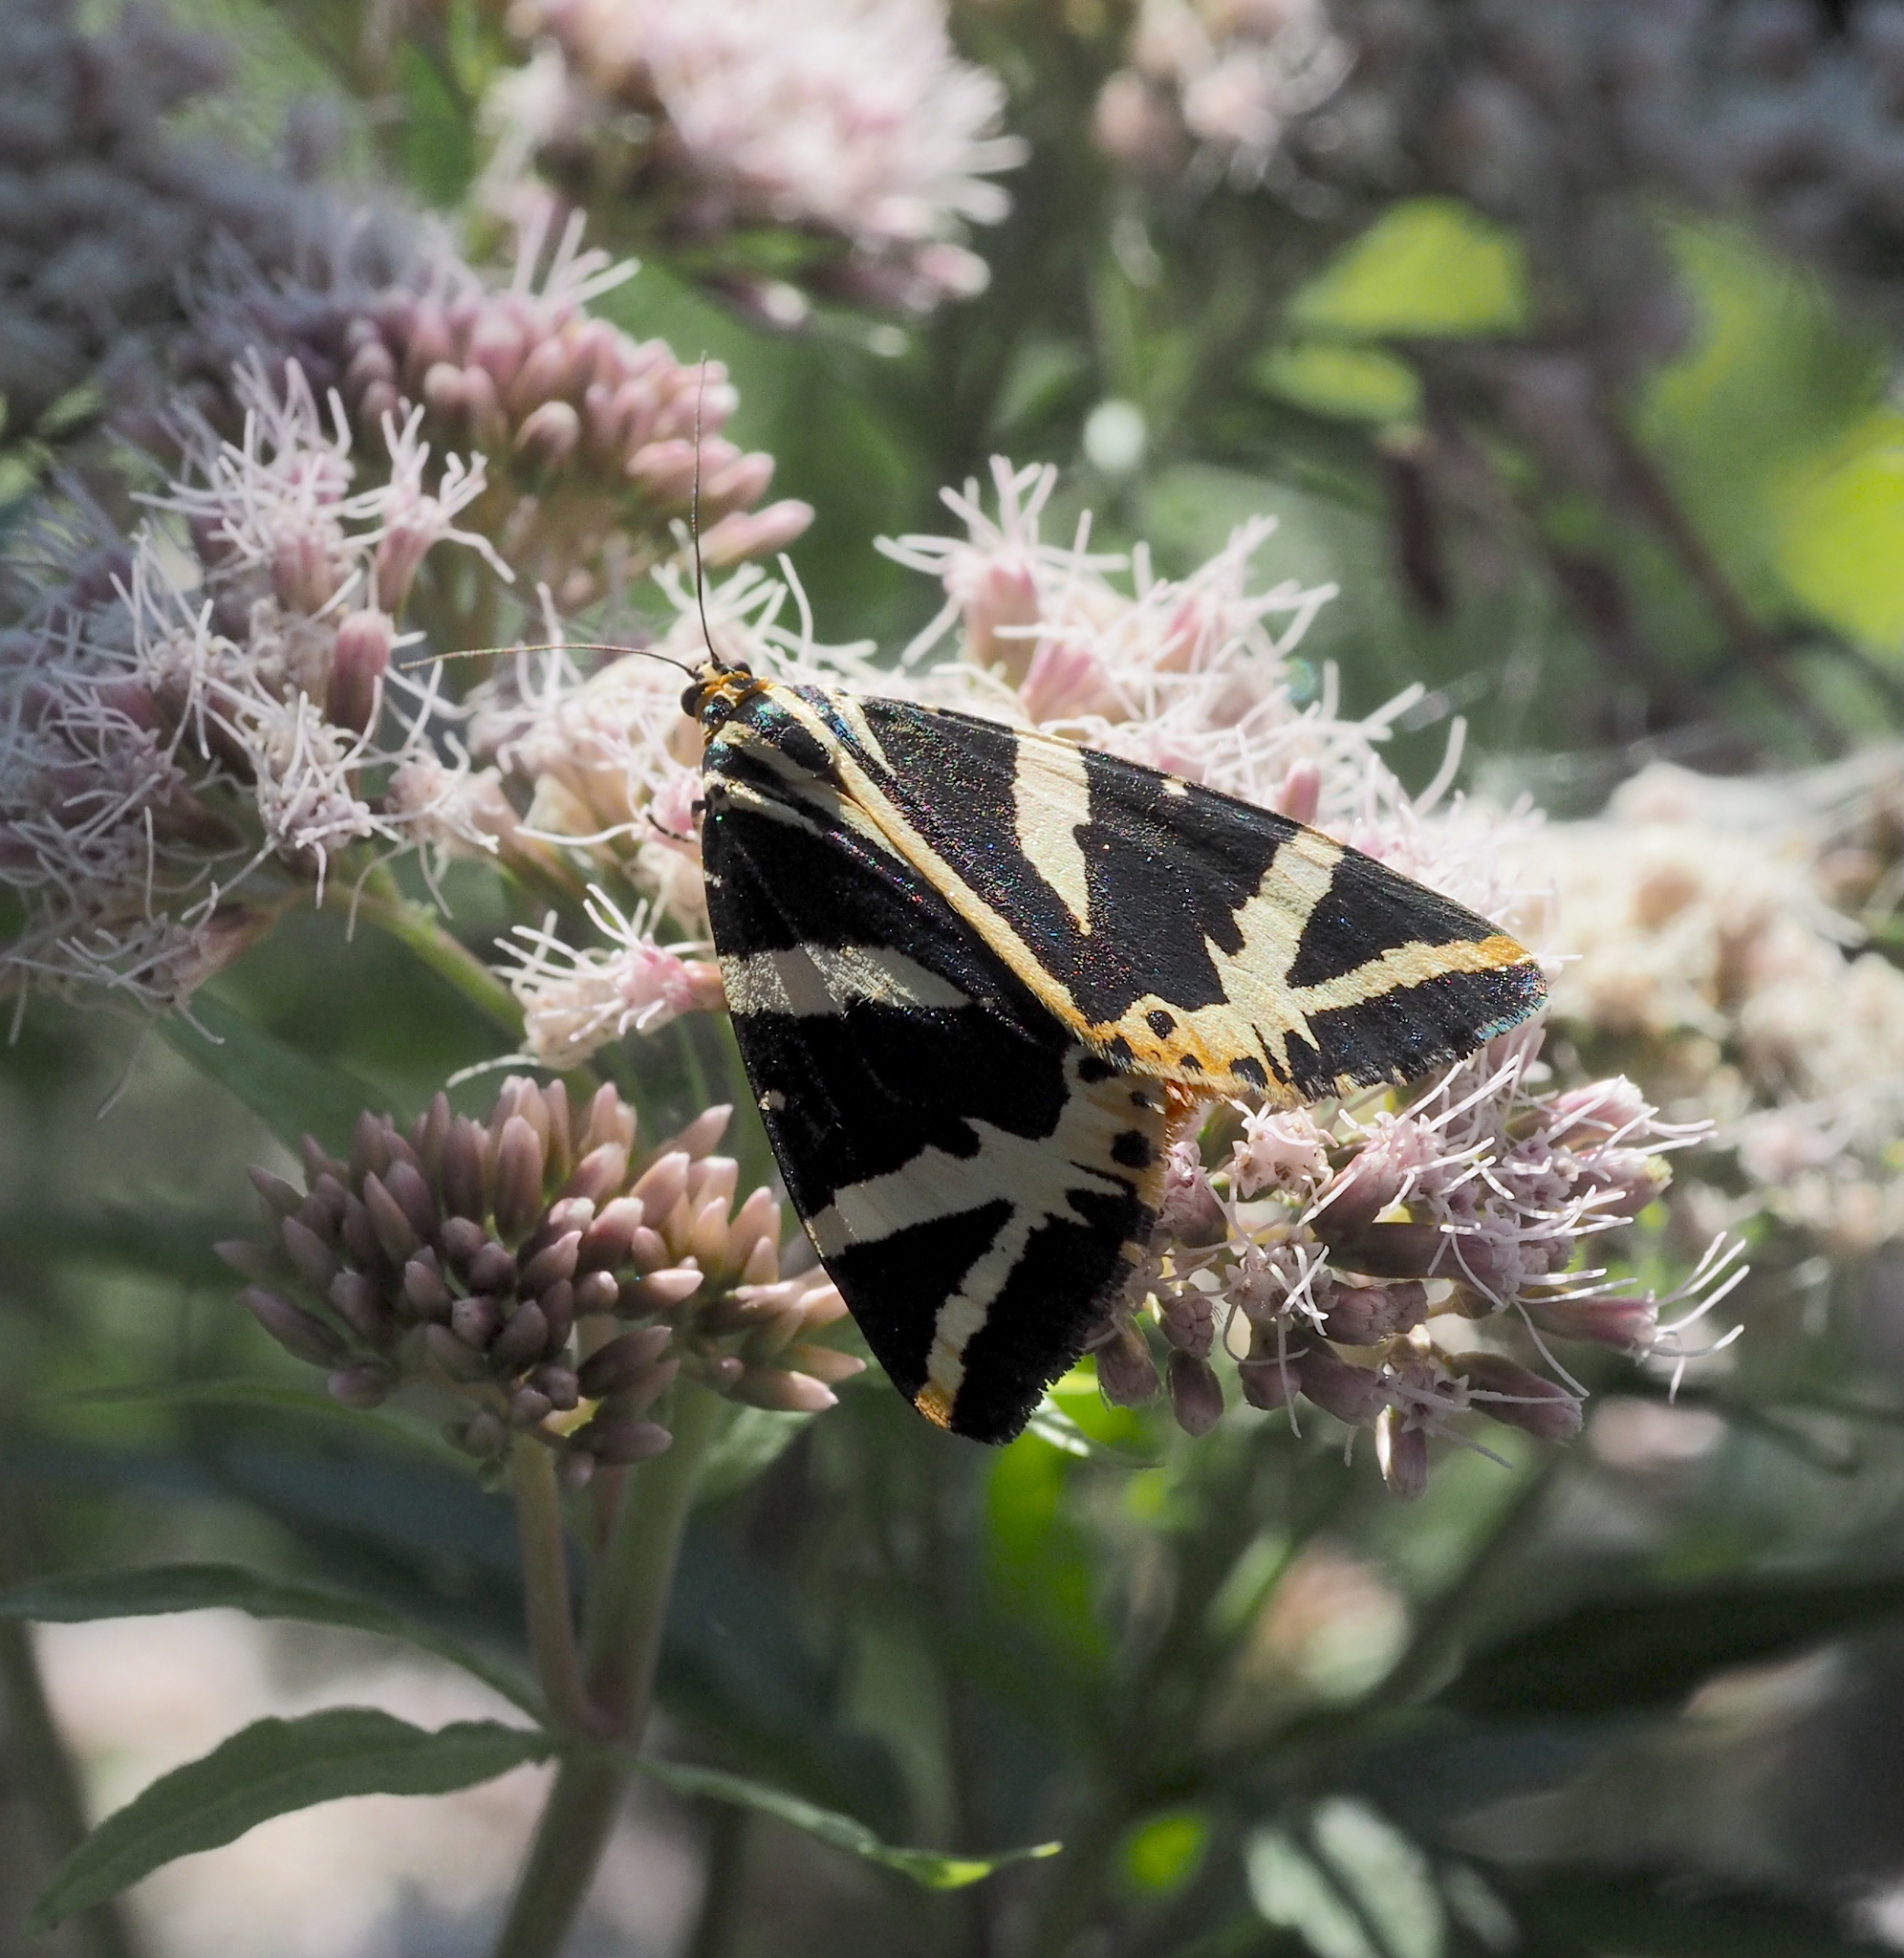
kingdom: Animalia
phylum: Arthropoda
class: Insecta
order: Lepidoptera
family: Erebidae
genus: Euplagia
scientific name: Euplagia quadripunctaria
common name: Jersey tiger
